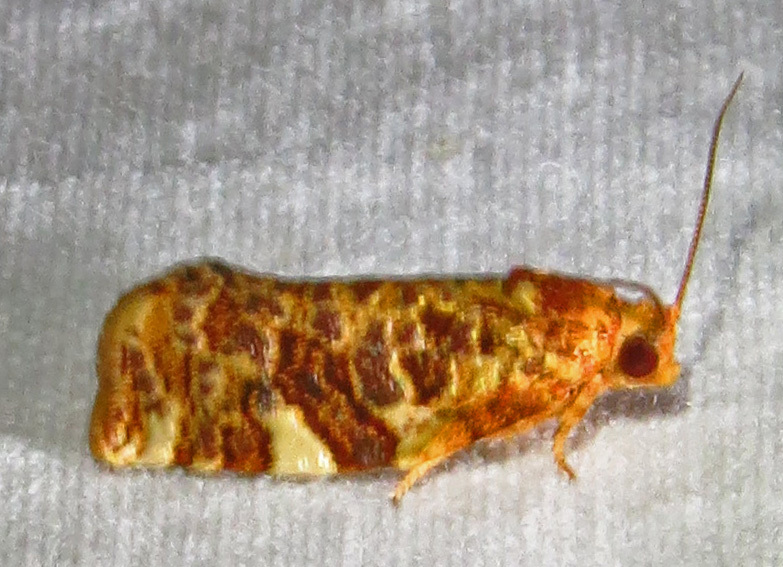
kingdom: Animalia
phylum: Arthropoda
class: Insecta
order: Lepidoptera
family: Tortricidae
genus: Archips
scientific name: Archips argyrospila
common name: Fruit-tree leafroller moth
